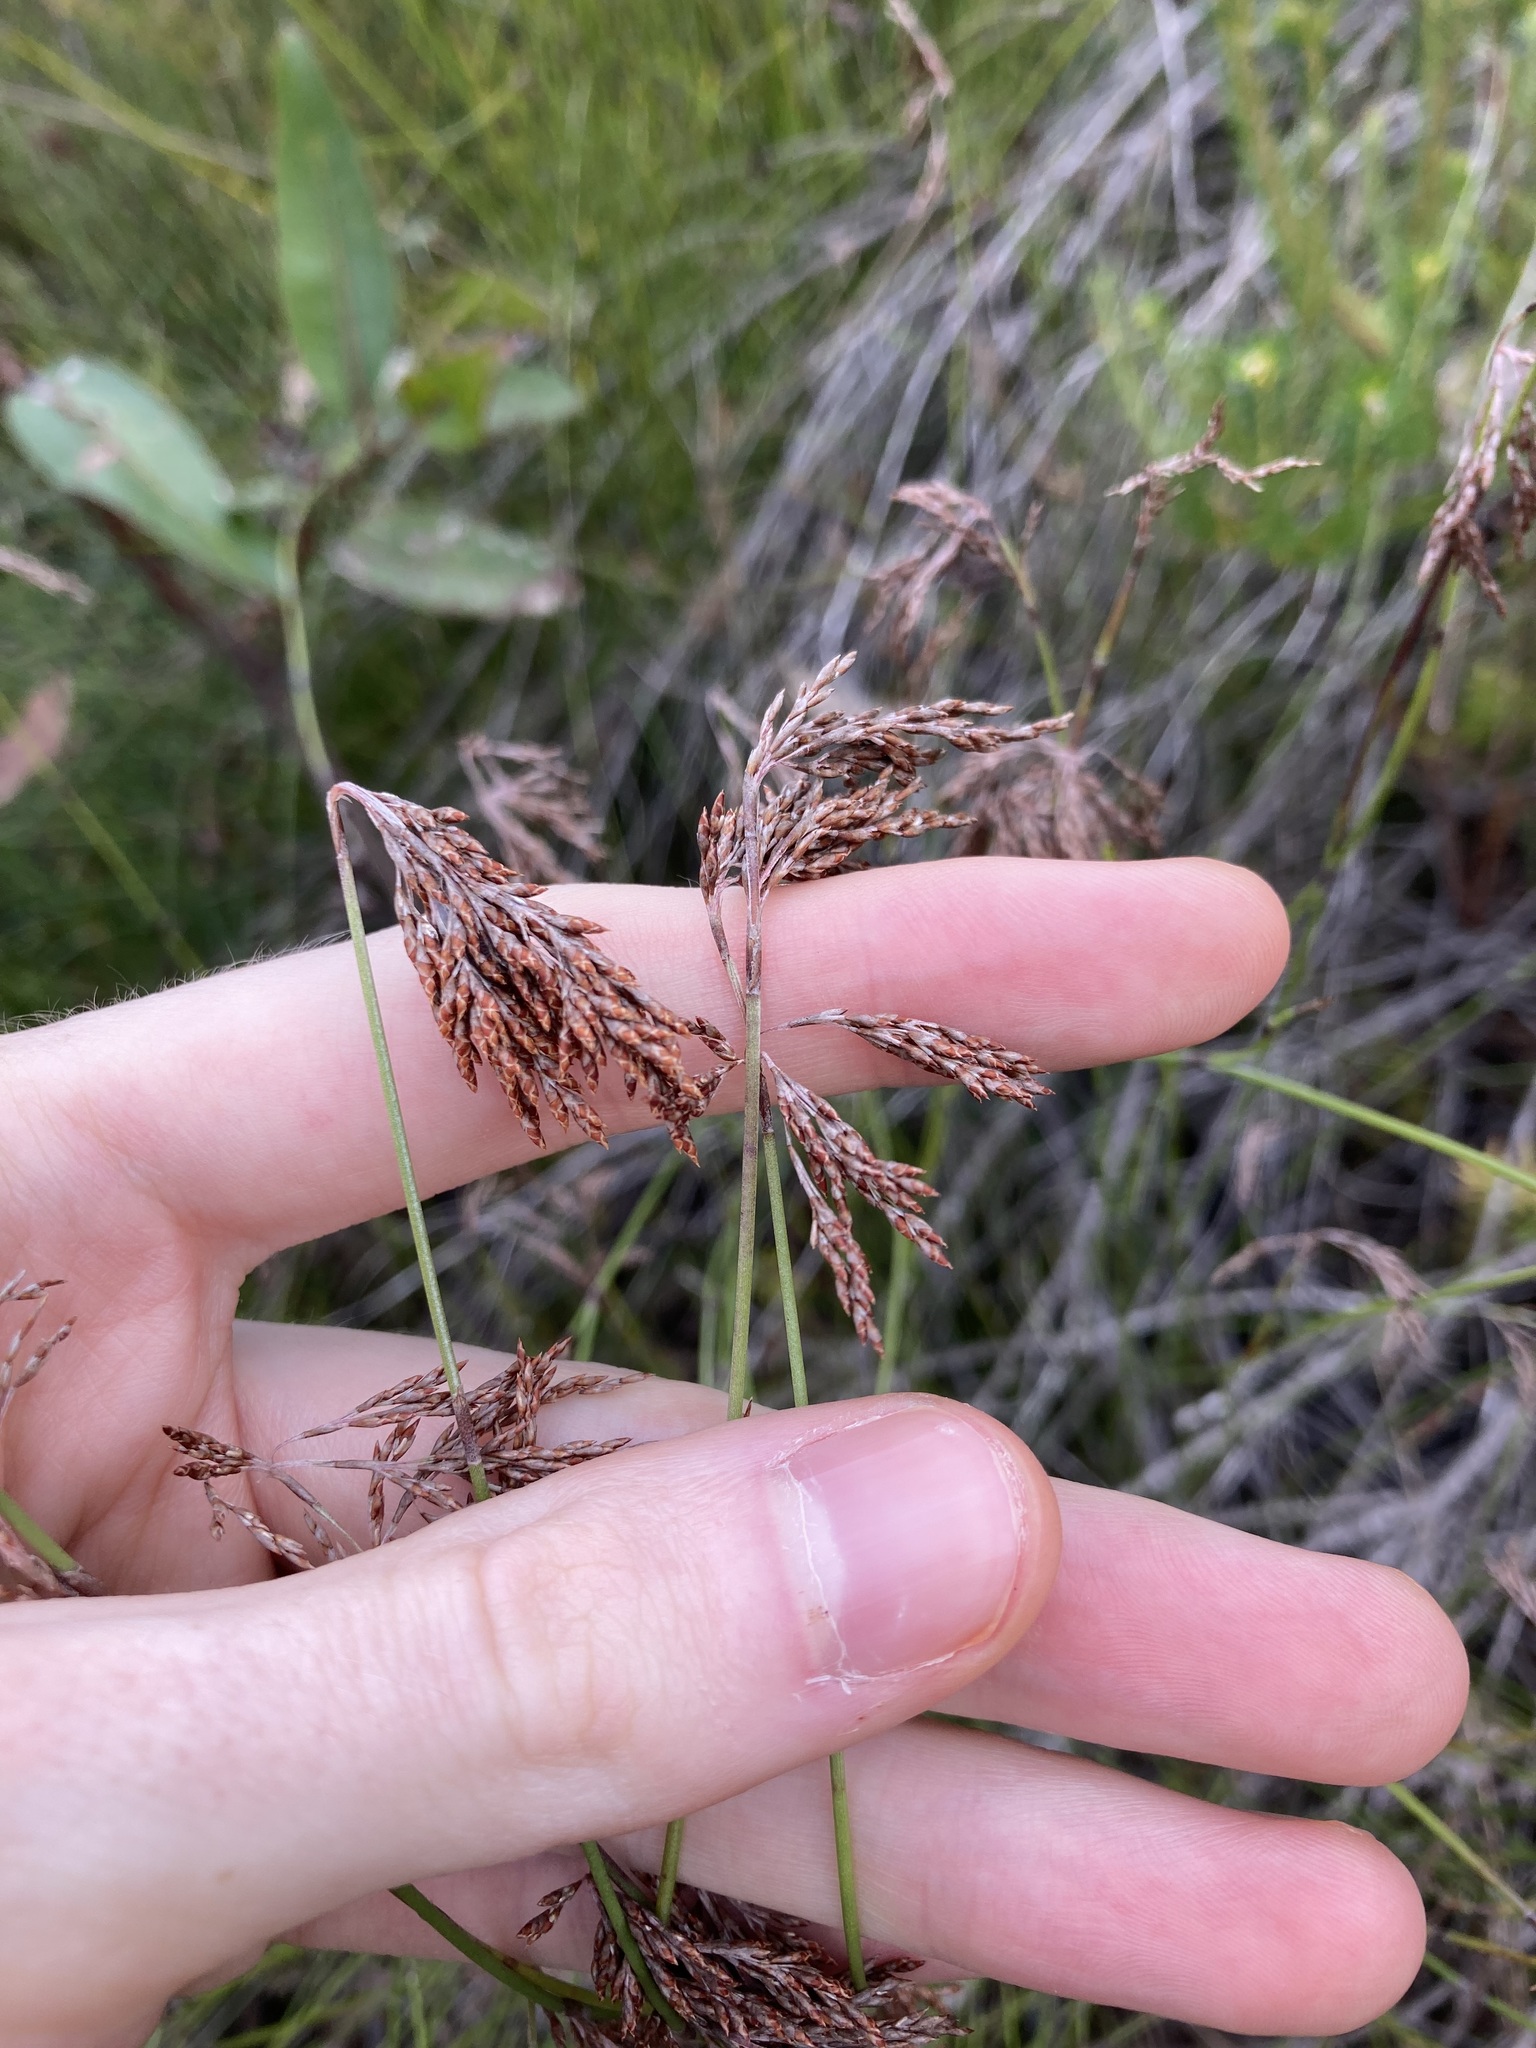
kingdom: Plantae
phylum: Tracheophyta
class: Liliopsida
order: Poales
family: Restionaceae
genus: Leptocarpus
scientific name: Leptocarpus tenax
